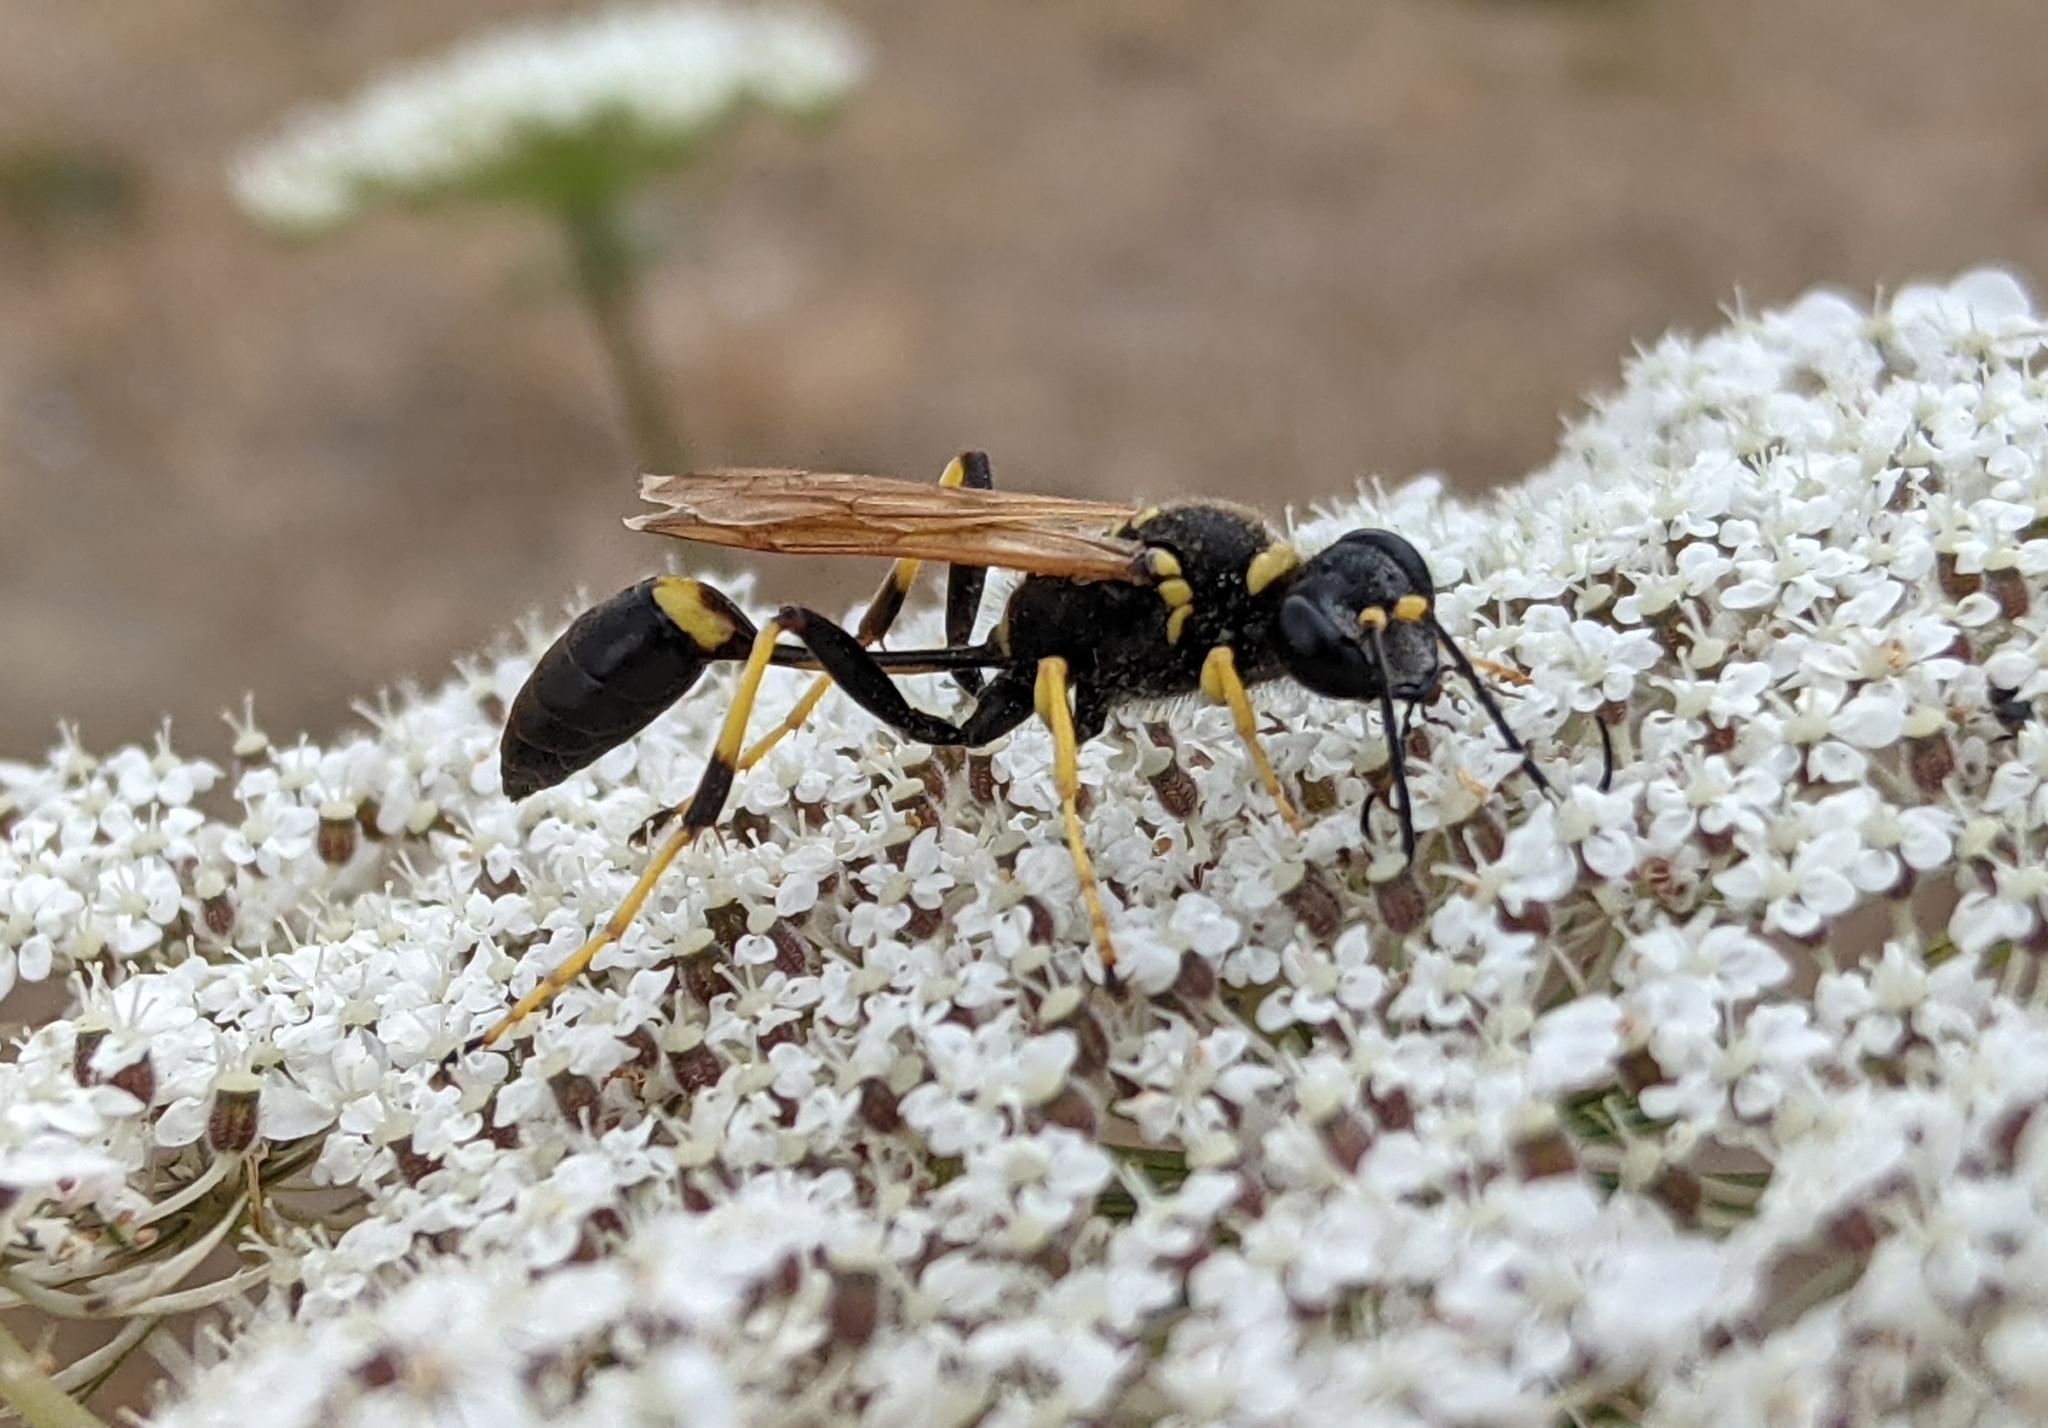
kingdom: Animalia
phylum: Arthropoda
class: Insecta
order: Hymenoptera
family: Sphecidae
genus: Sceliphron
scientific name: Sceliphron caementarium
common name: Mud dauber
